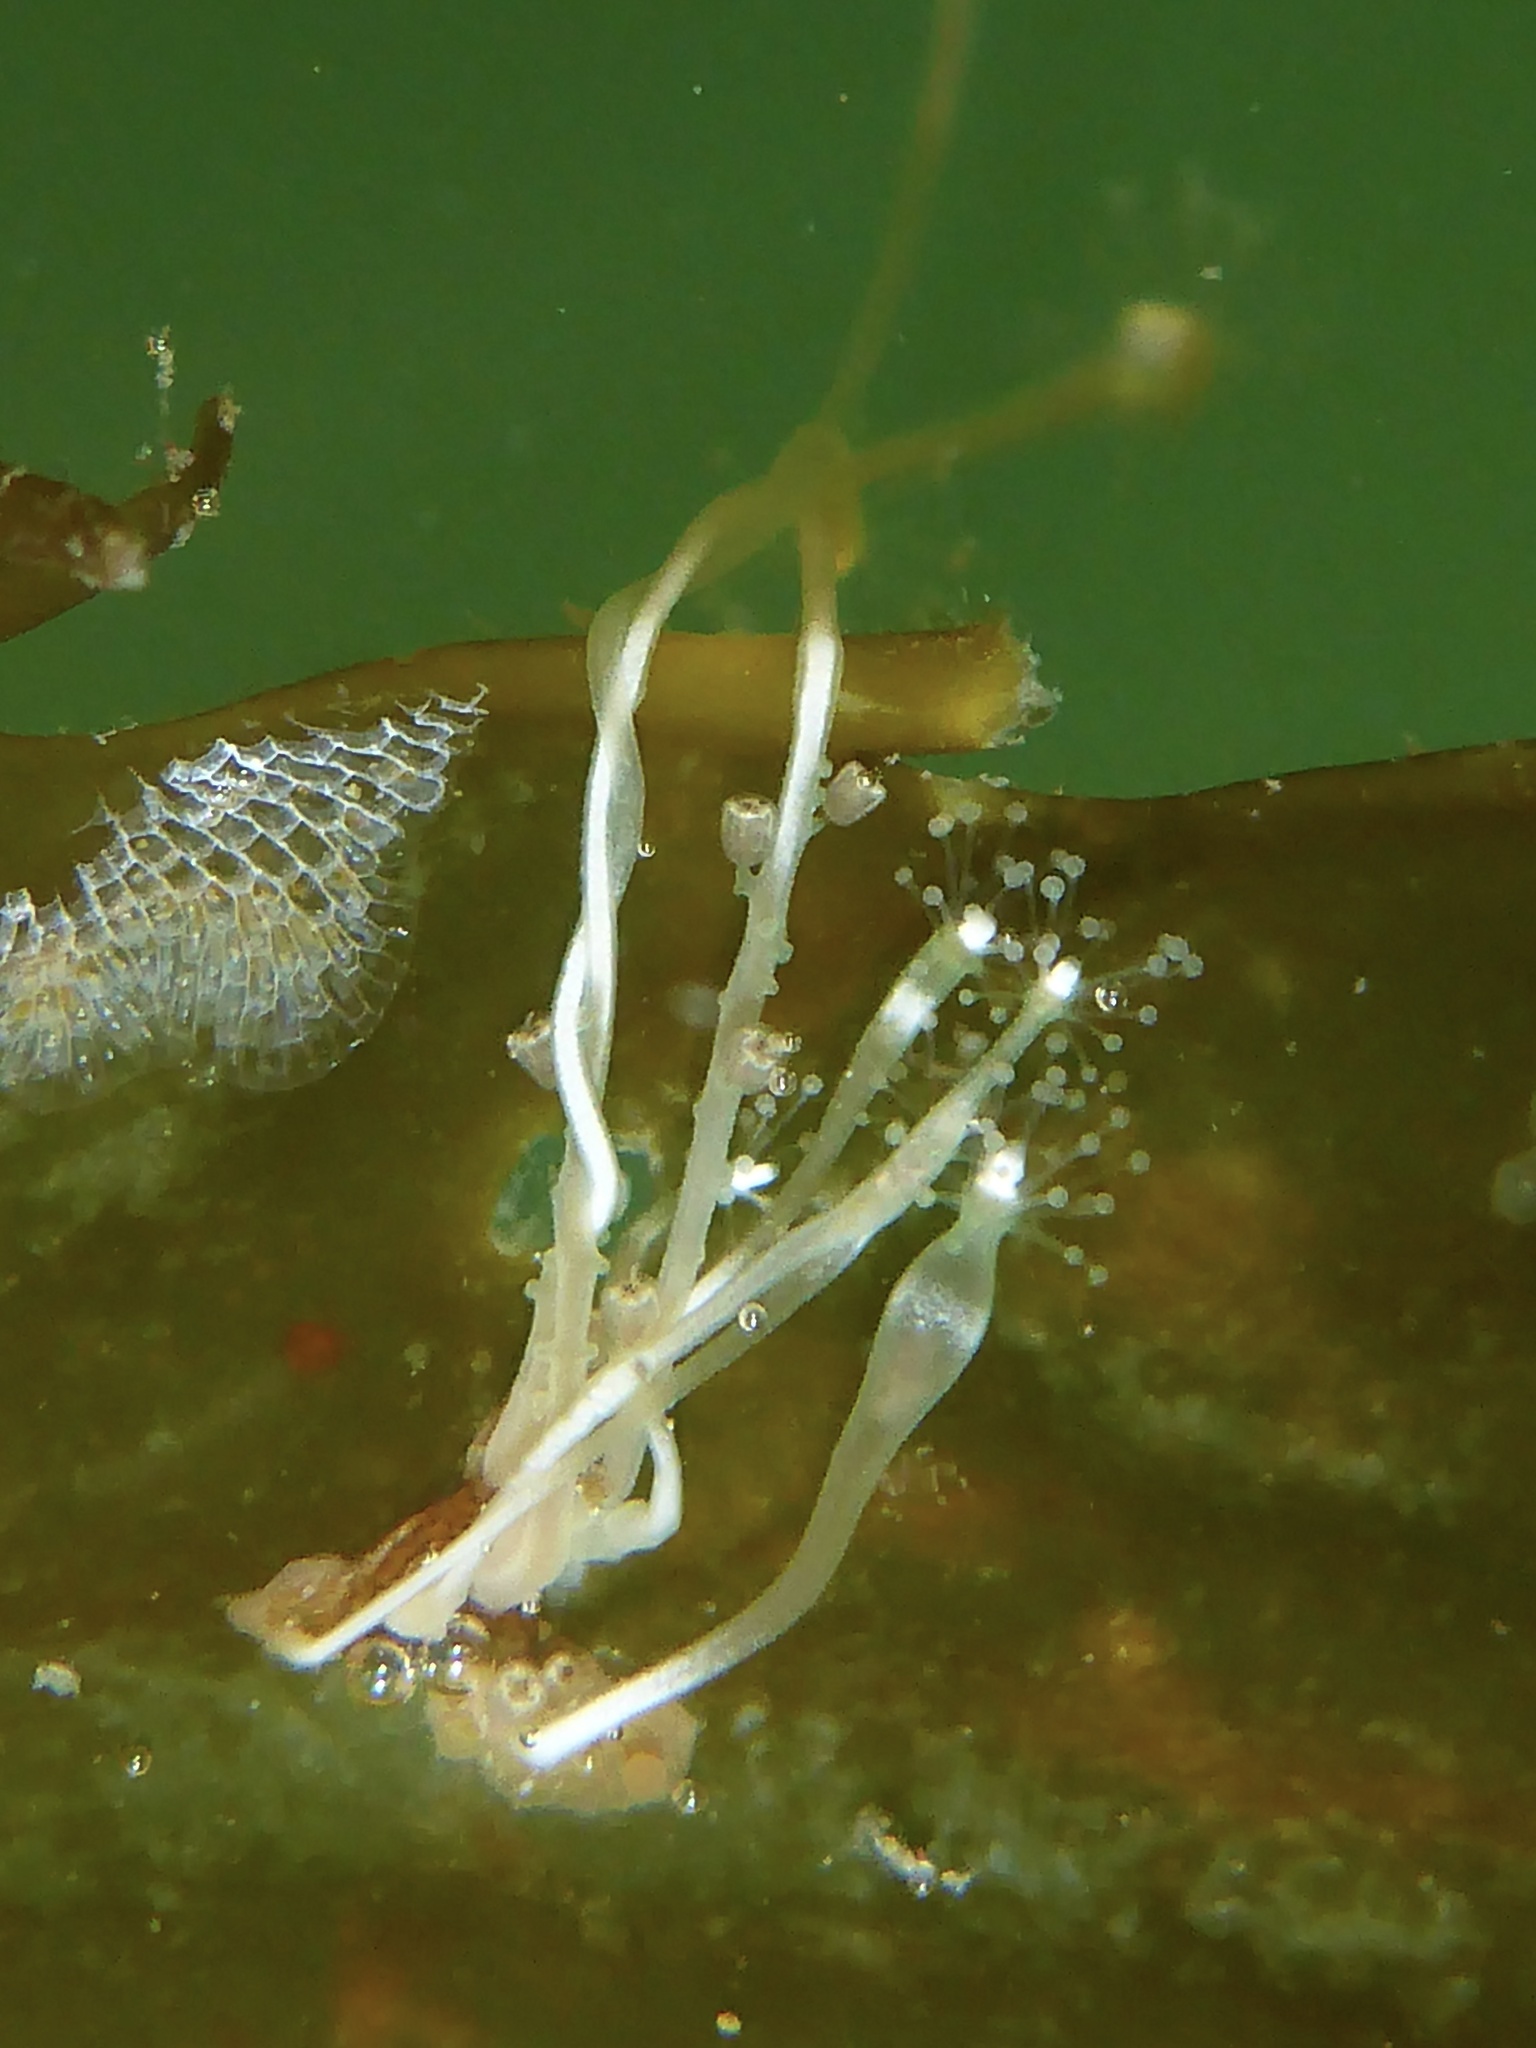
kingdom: Animalia
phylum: Cnidaria
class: Hydrozoa
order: Anthoathecata
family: Hydrocorynidae
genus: Hydrocoryne
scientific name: Hydrocoryne bodegensis
